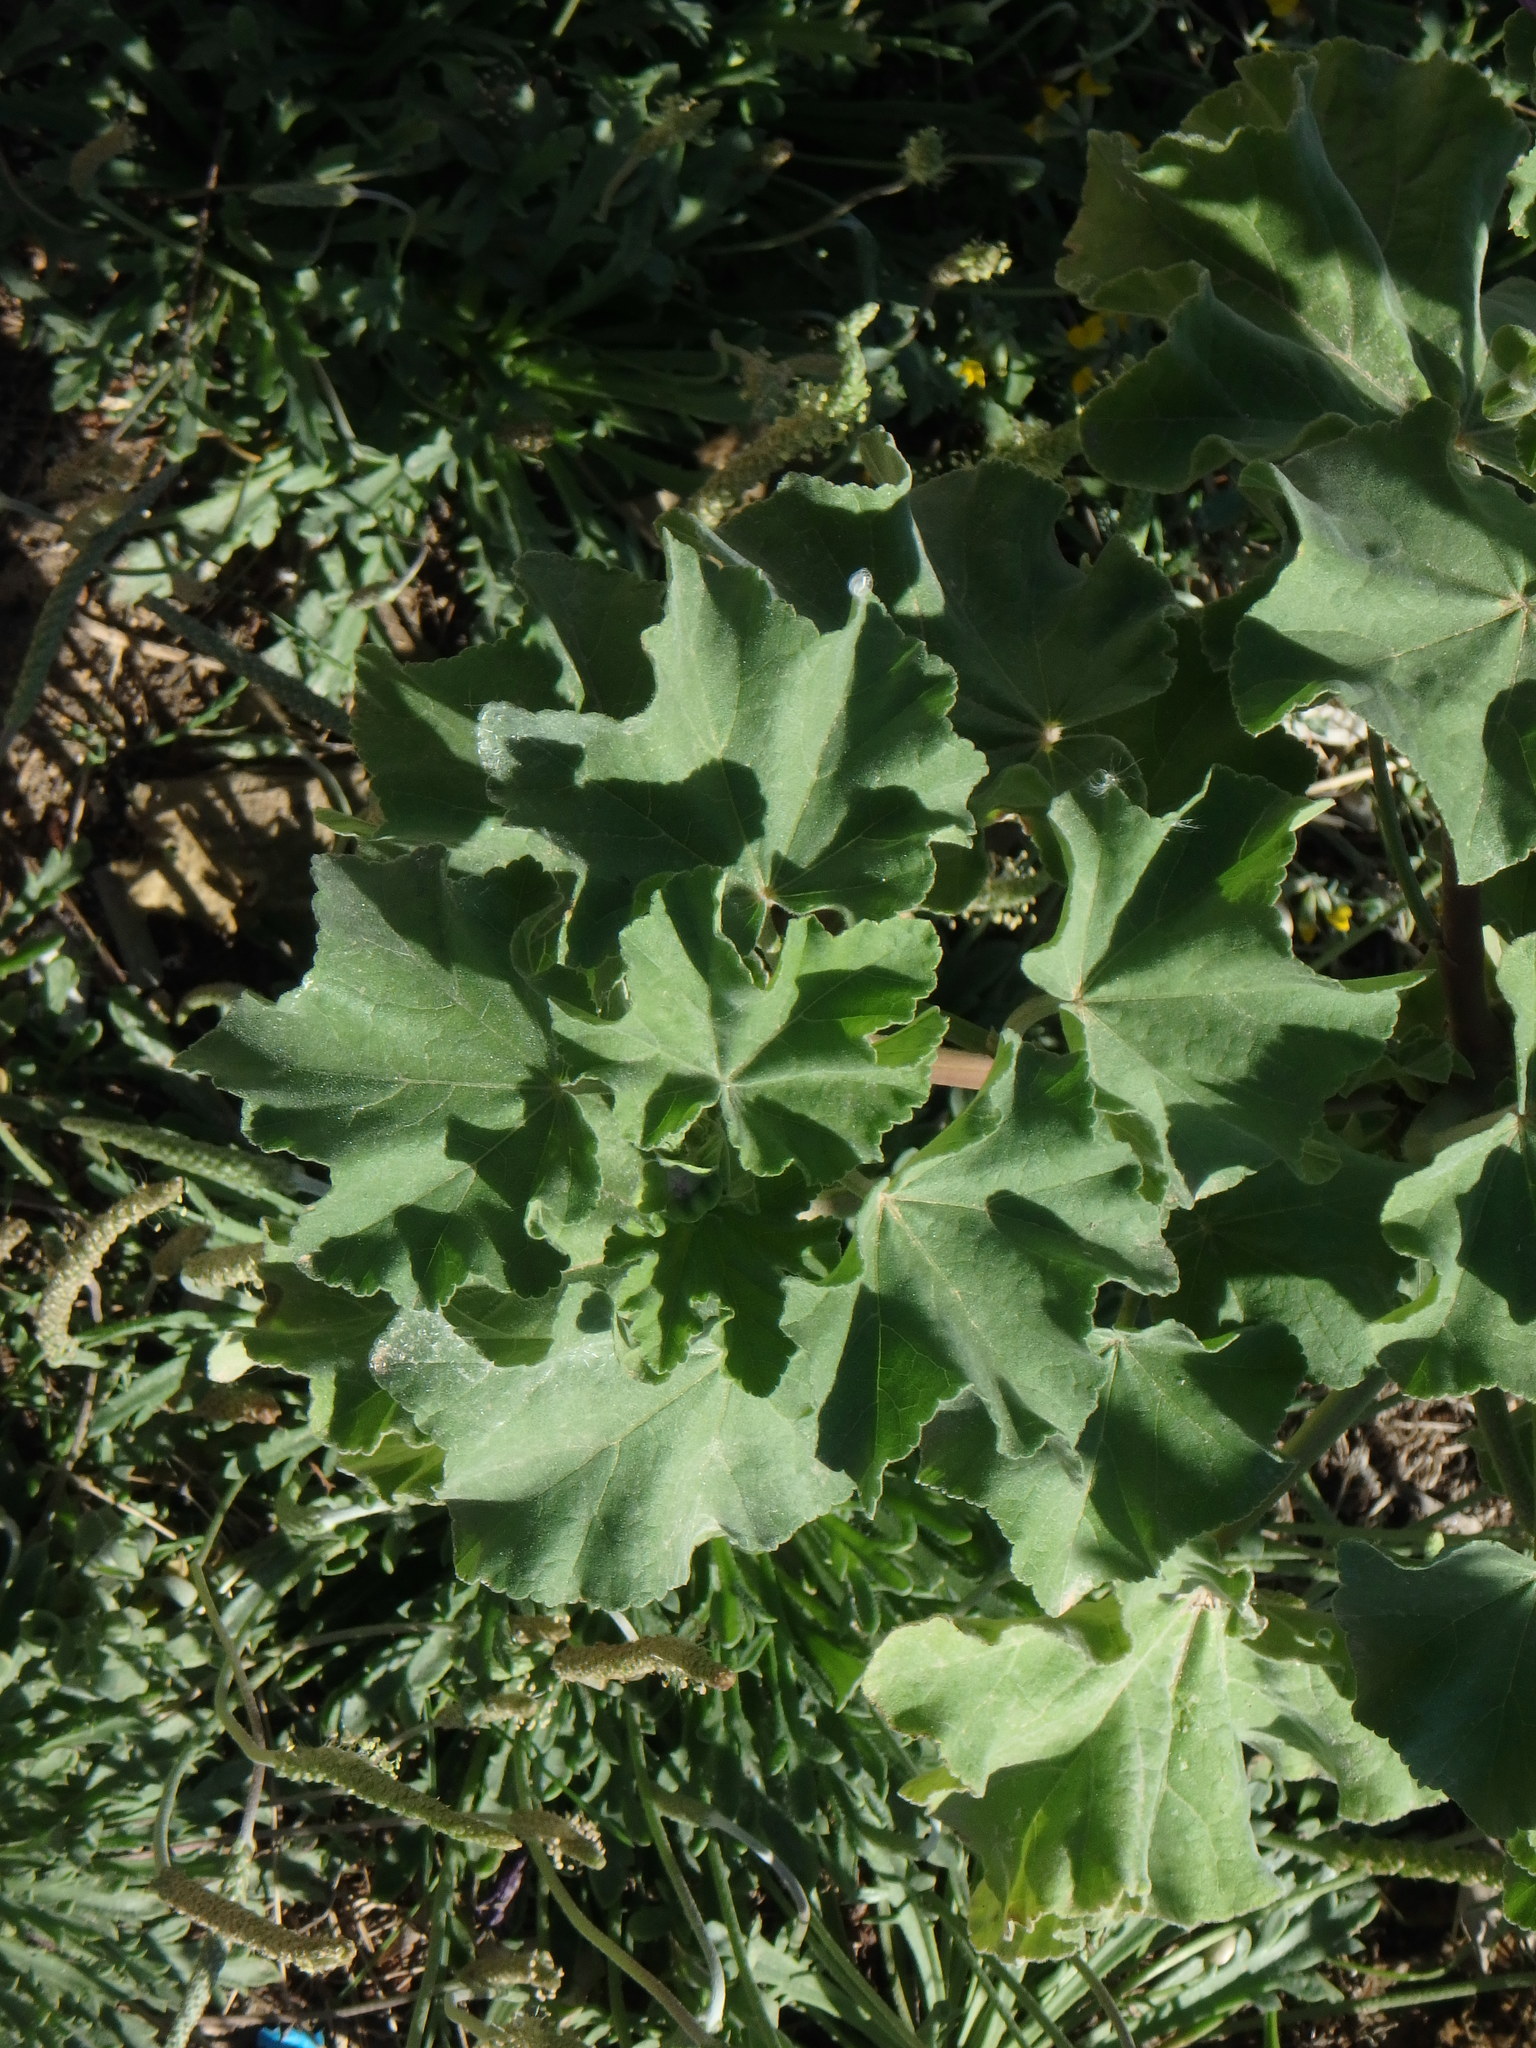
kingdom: Plantae
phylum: Tracheophyta
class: Magnoliopsida
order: Malvales
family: Malvaceae
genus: Malva
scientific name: Malva arborea
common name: Tree mallow
